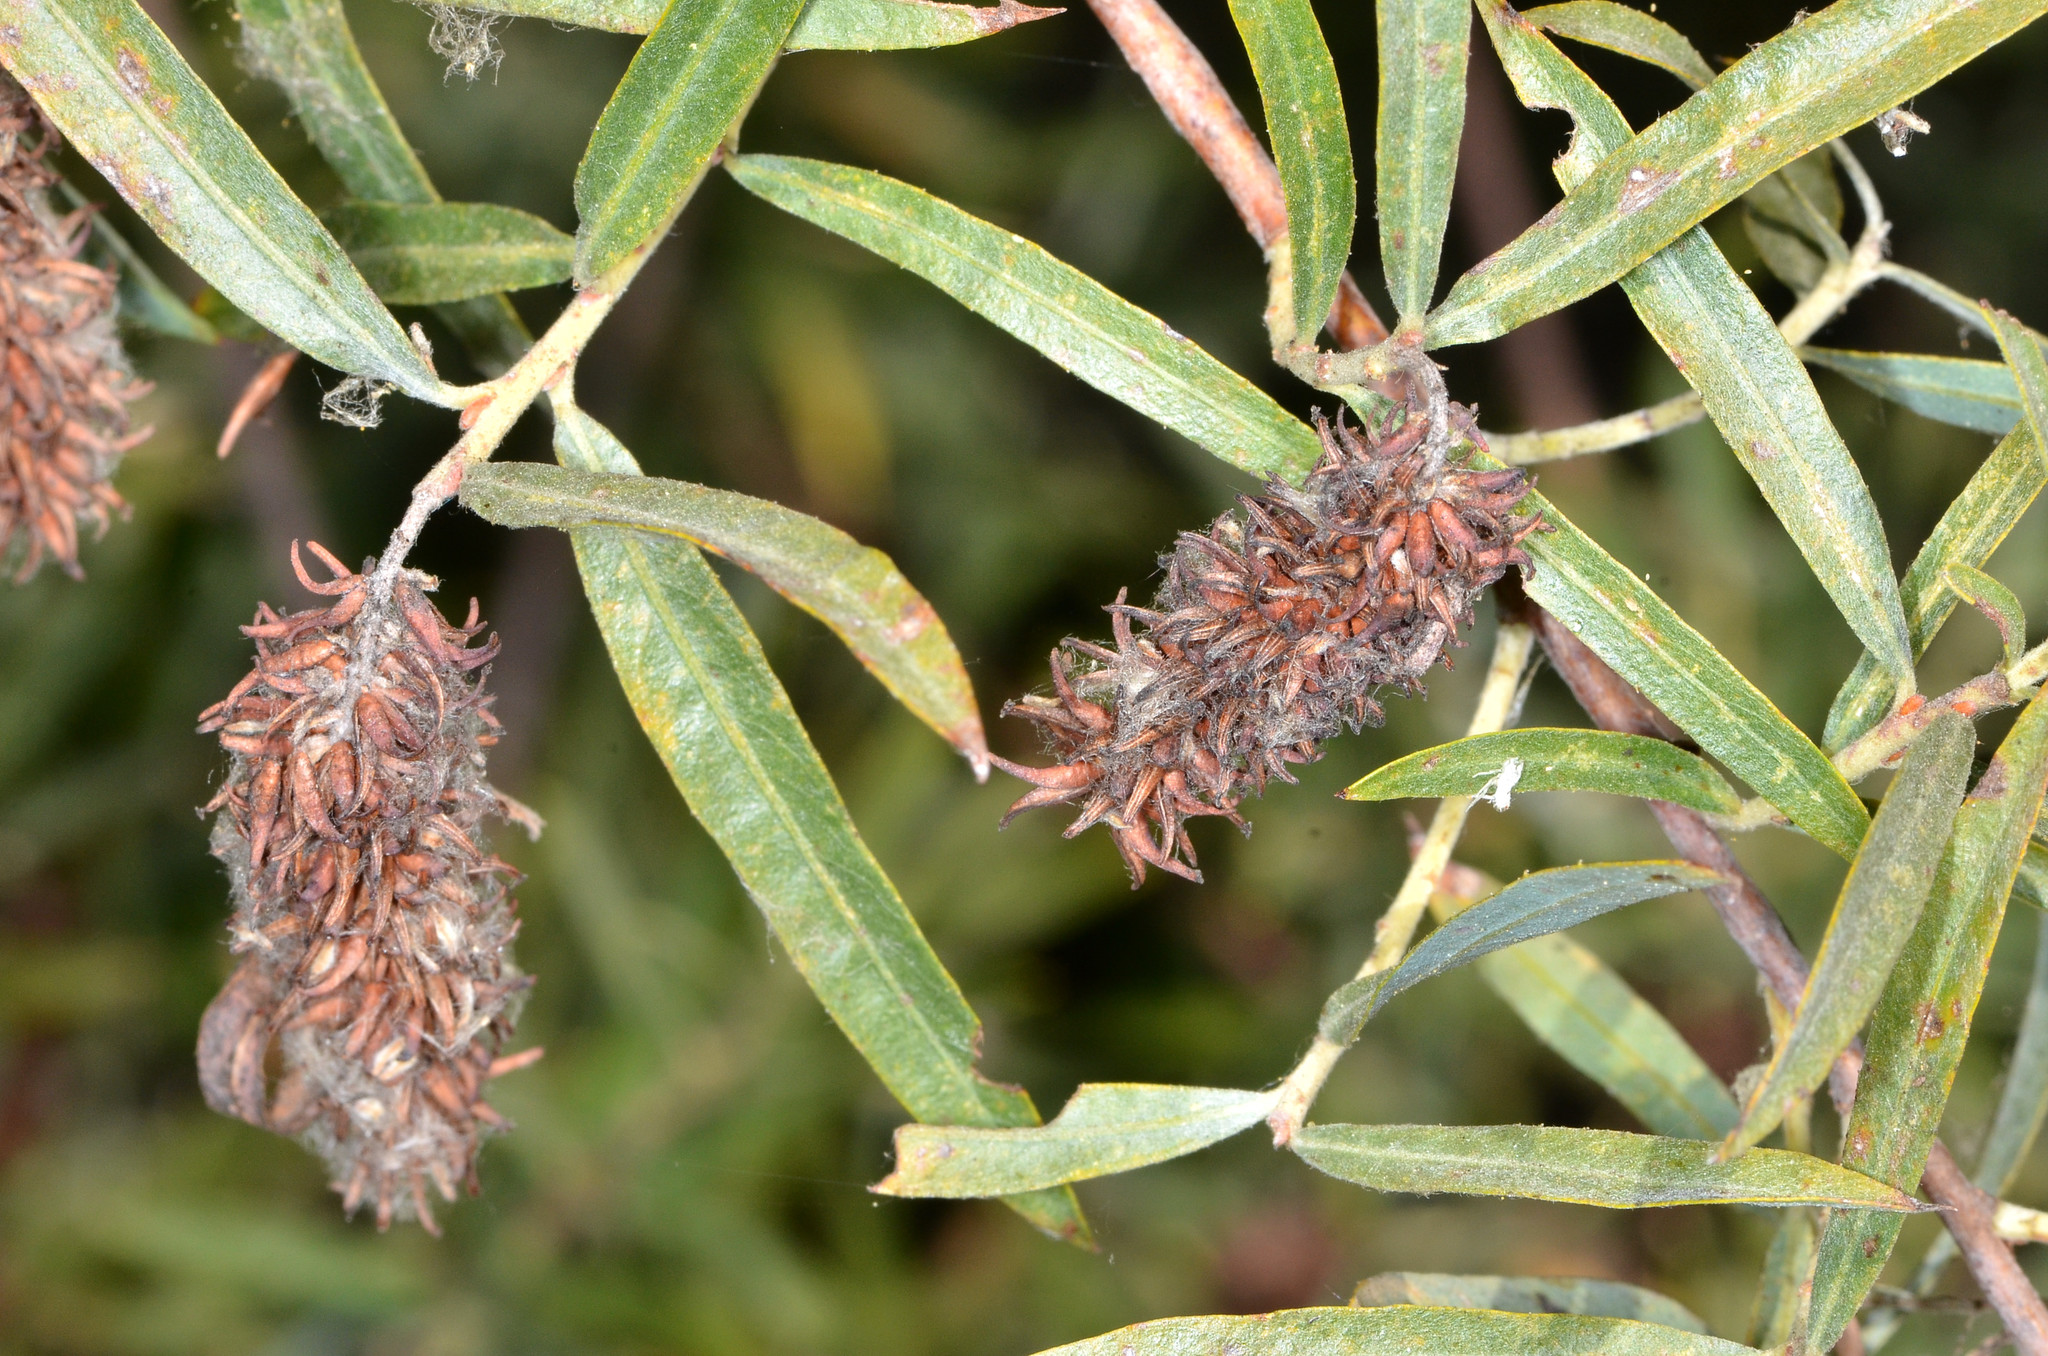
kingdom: Plantae
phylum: Tracheophyta
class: Magnoliopsida
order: Malpighiales
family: Salicaceae
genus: Salix
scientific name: Salix exigua
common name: Coyote willow
